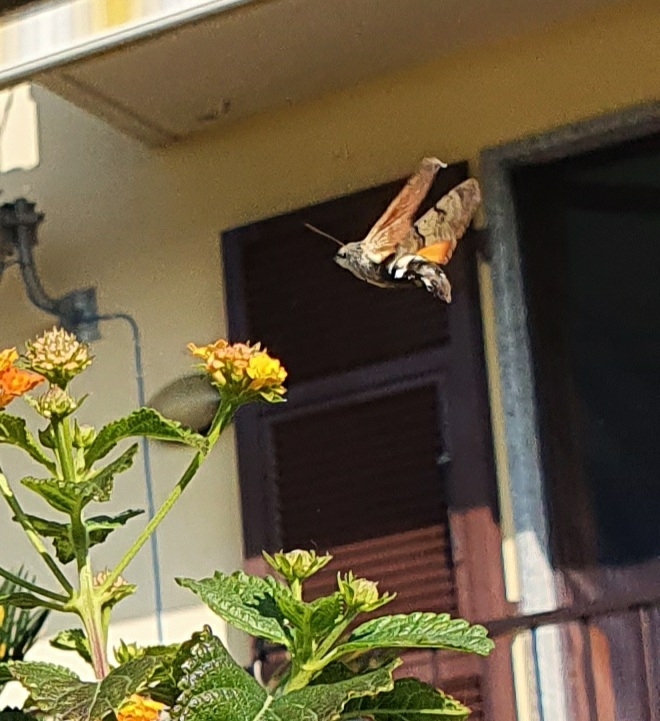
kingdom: Animalia
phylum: Arthropoda
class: Insecta
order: Lepidoptera
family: Sphingidae
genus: Macroglossum
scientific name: Macroglossum stellatarum
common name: Humming-bird hawk-moth
